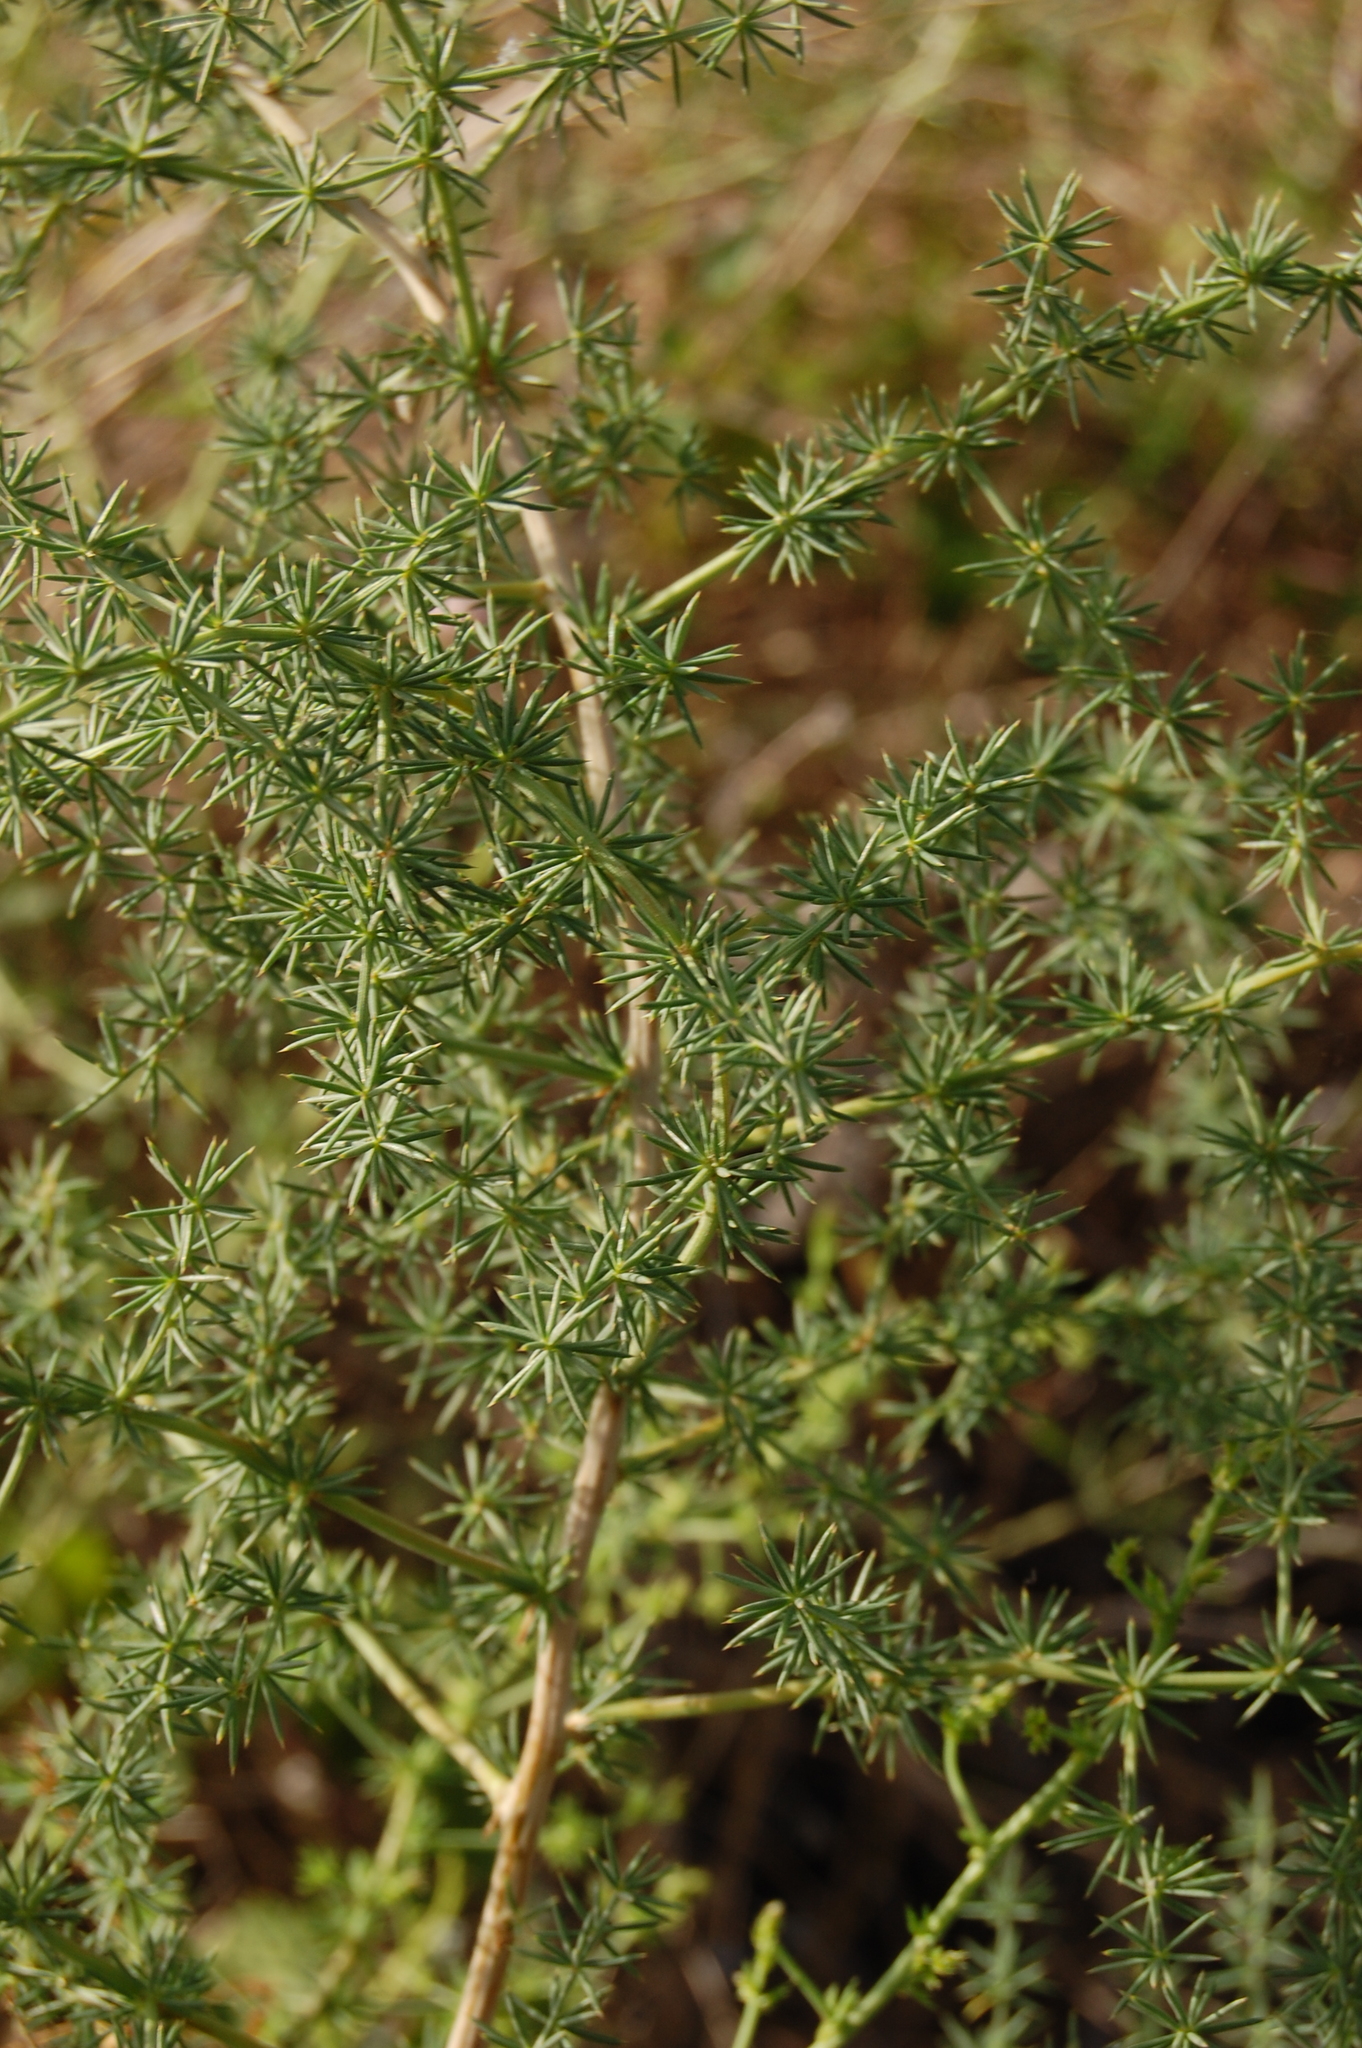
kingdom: Plantae
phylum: Tracheophyta
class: Liliopsida
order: Asparagales
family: Asparagaceae
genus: Asparagus
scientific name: Asparagus acutifolius
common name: Wild asparagus
